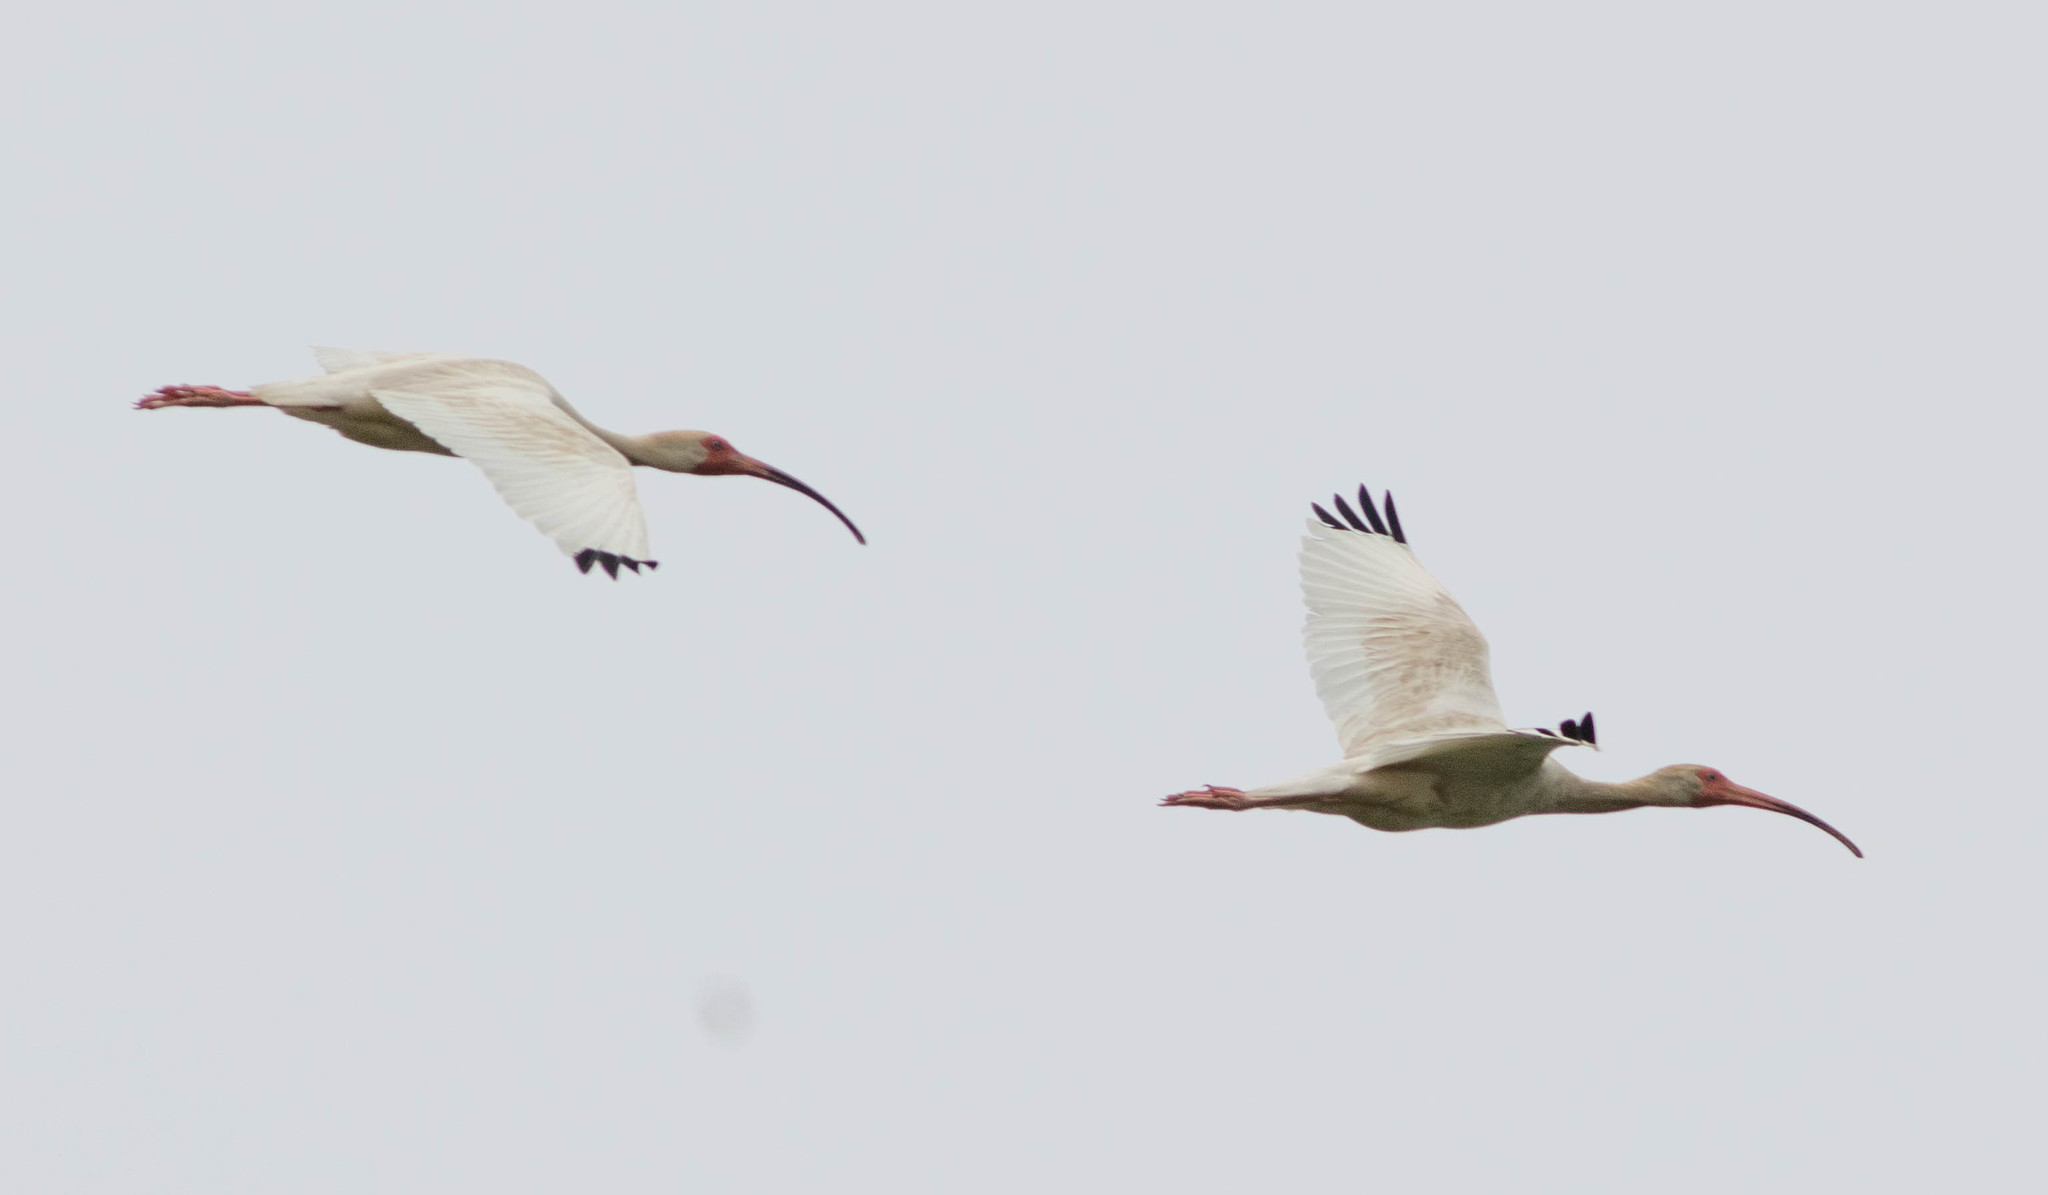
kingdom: Animalia
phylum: Chordata
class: Aves
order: Pelecaniformes
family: Threskiornithidae
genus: Eudocimus
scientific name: Eudocimus albus
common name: White ibis
